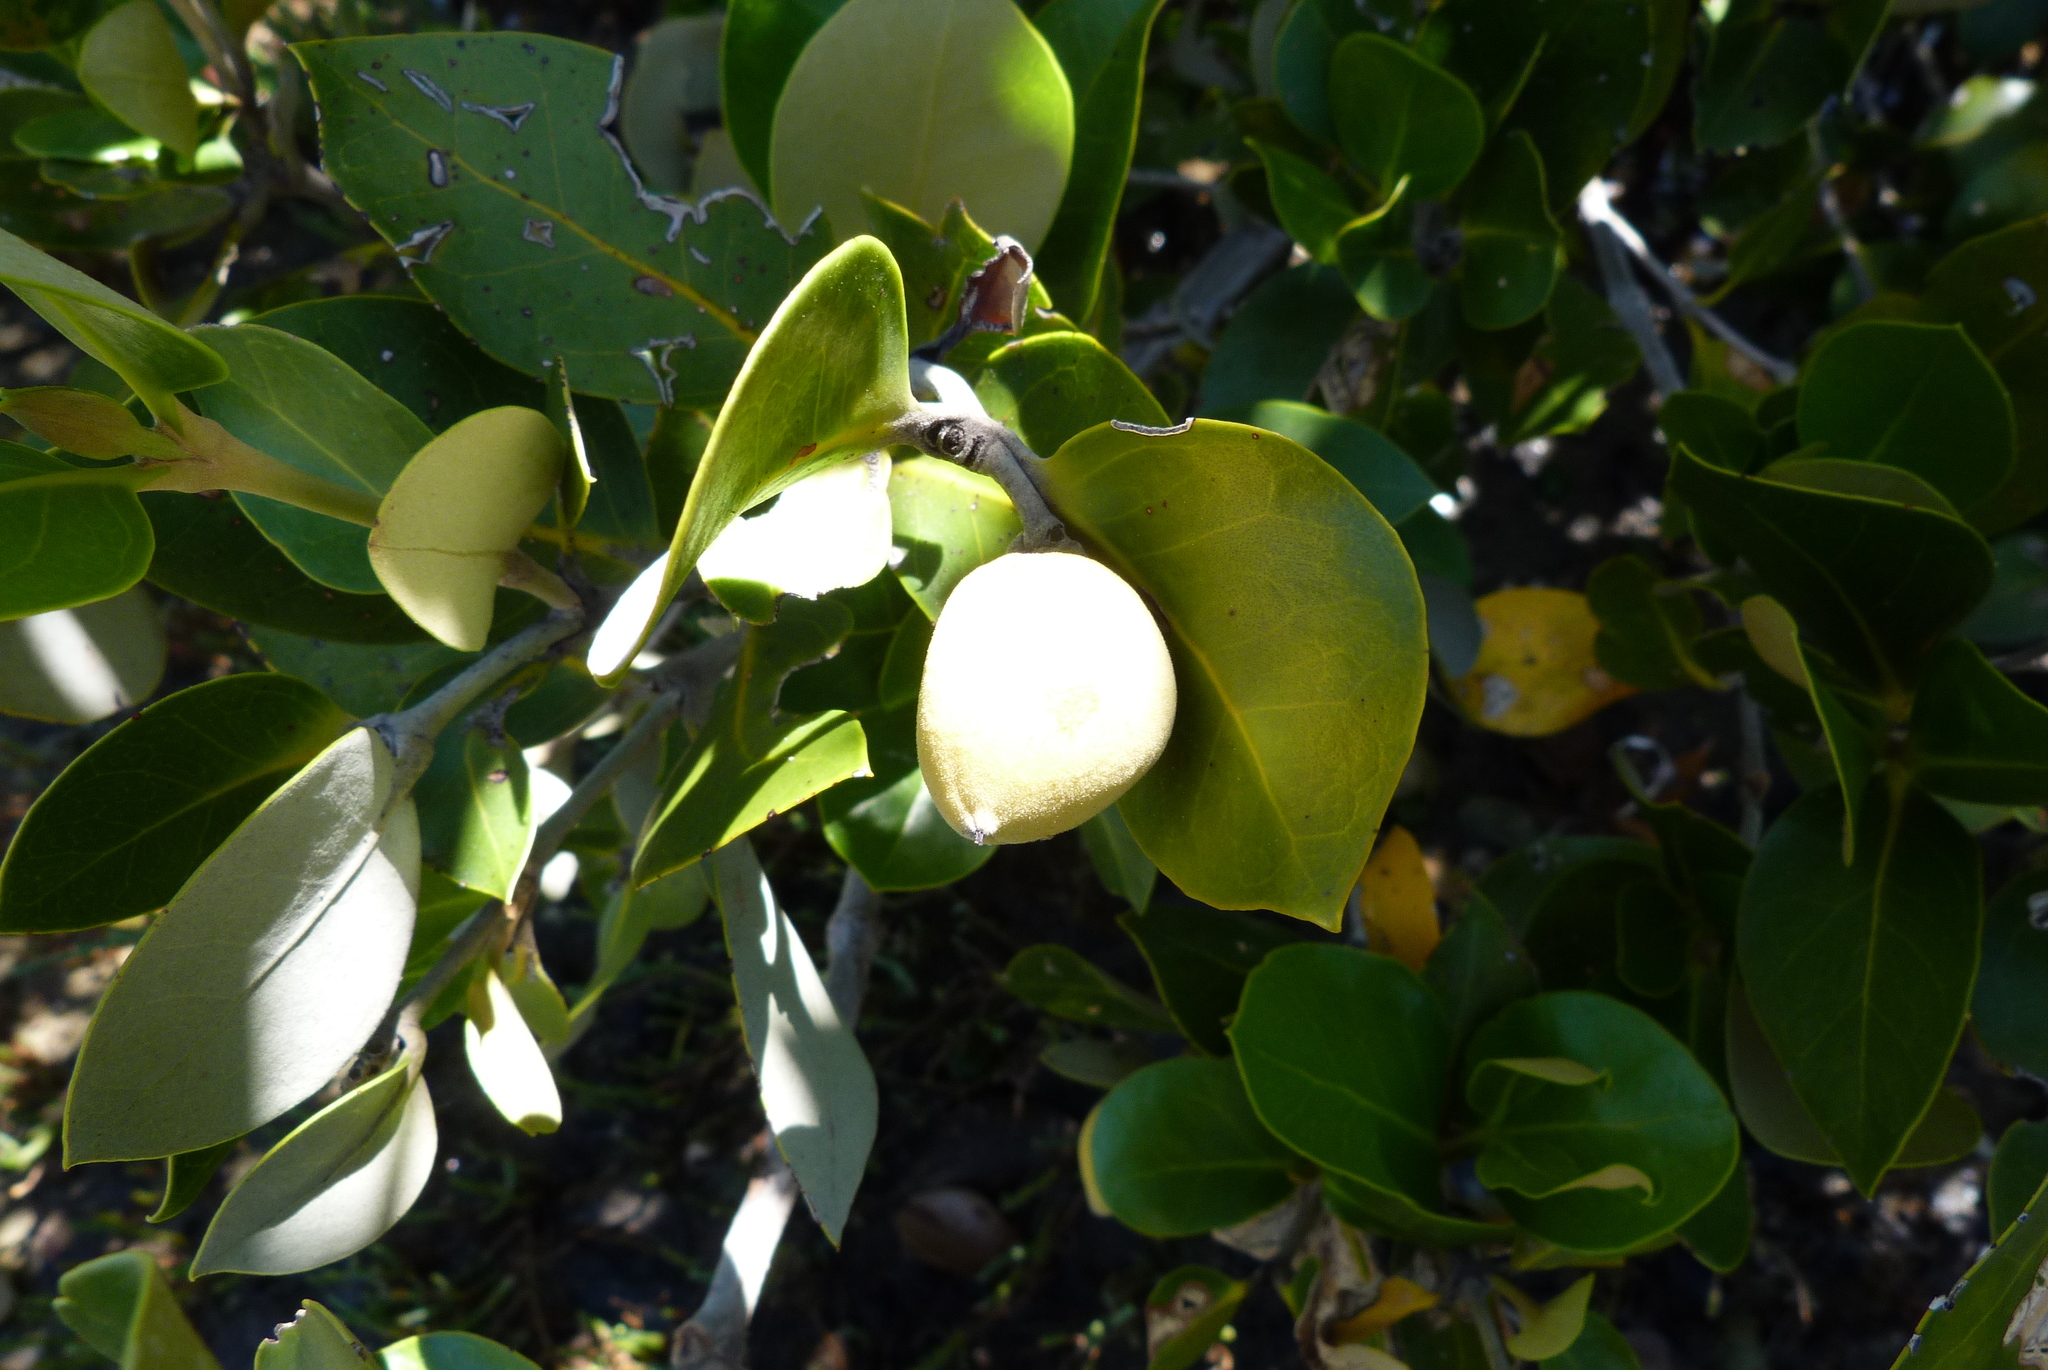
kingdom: Plantae
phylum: Tracheophyta
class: Magnoliopsida
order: Lamiales
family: Acanthaceae
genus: Avicennia
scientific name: Avicennia marina
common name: Gray mangrove
